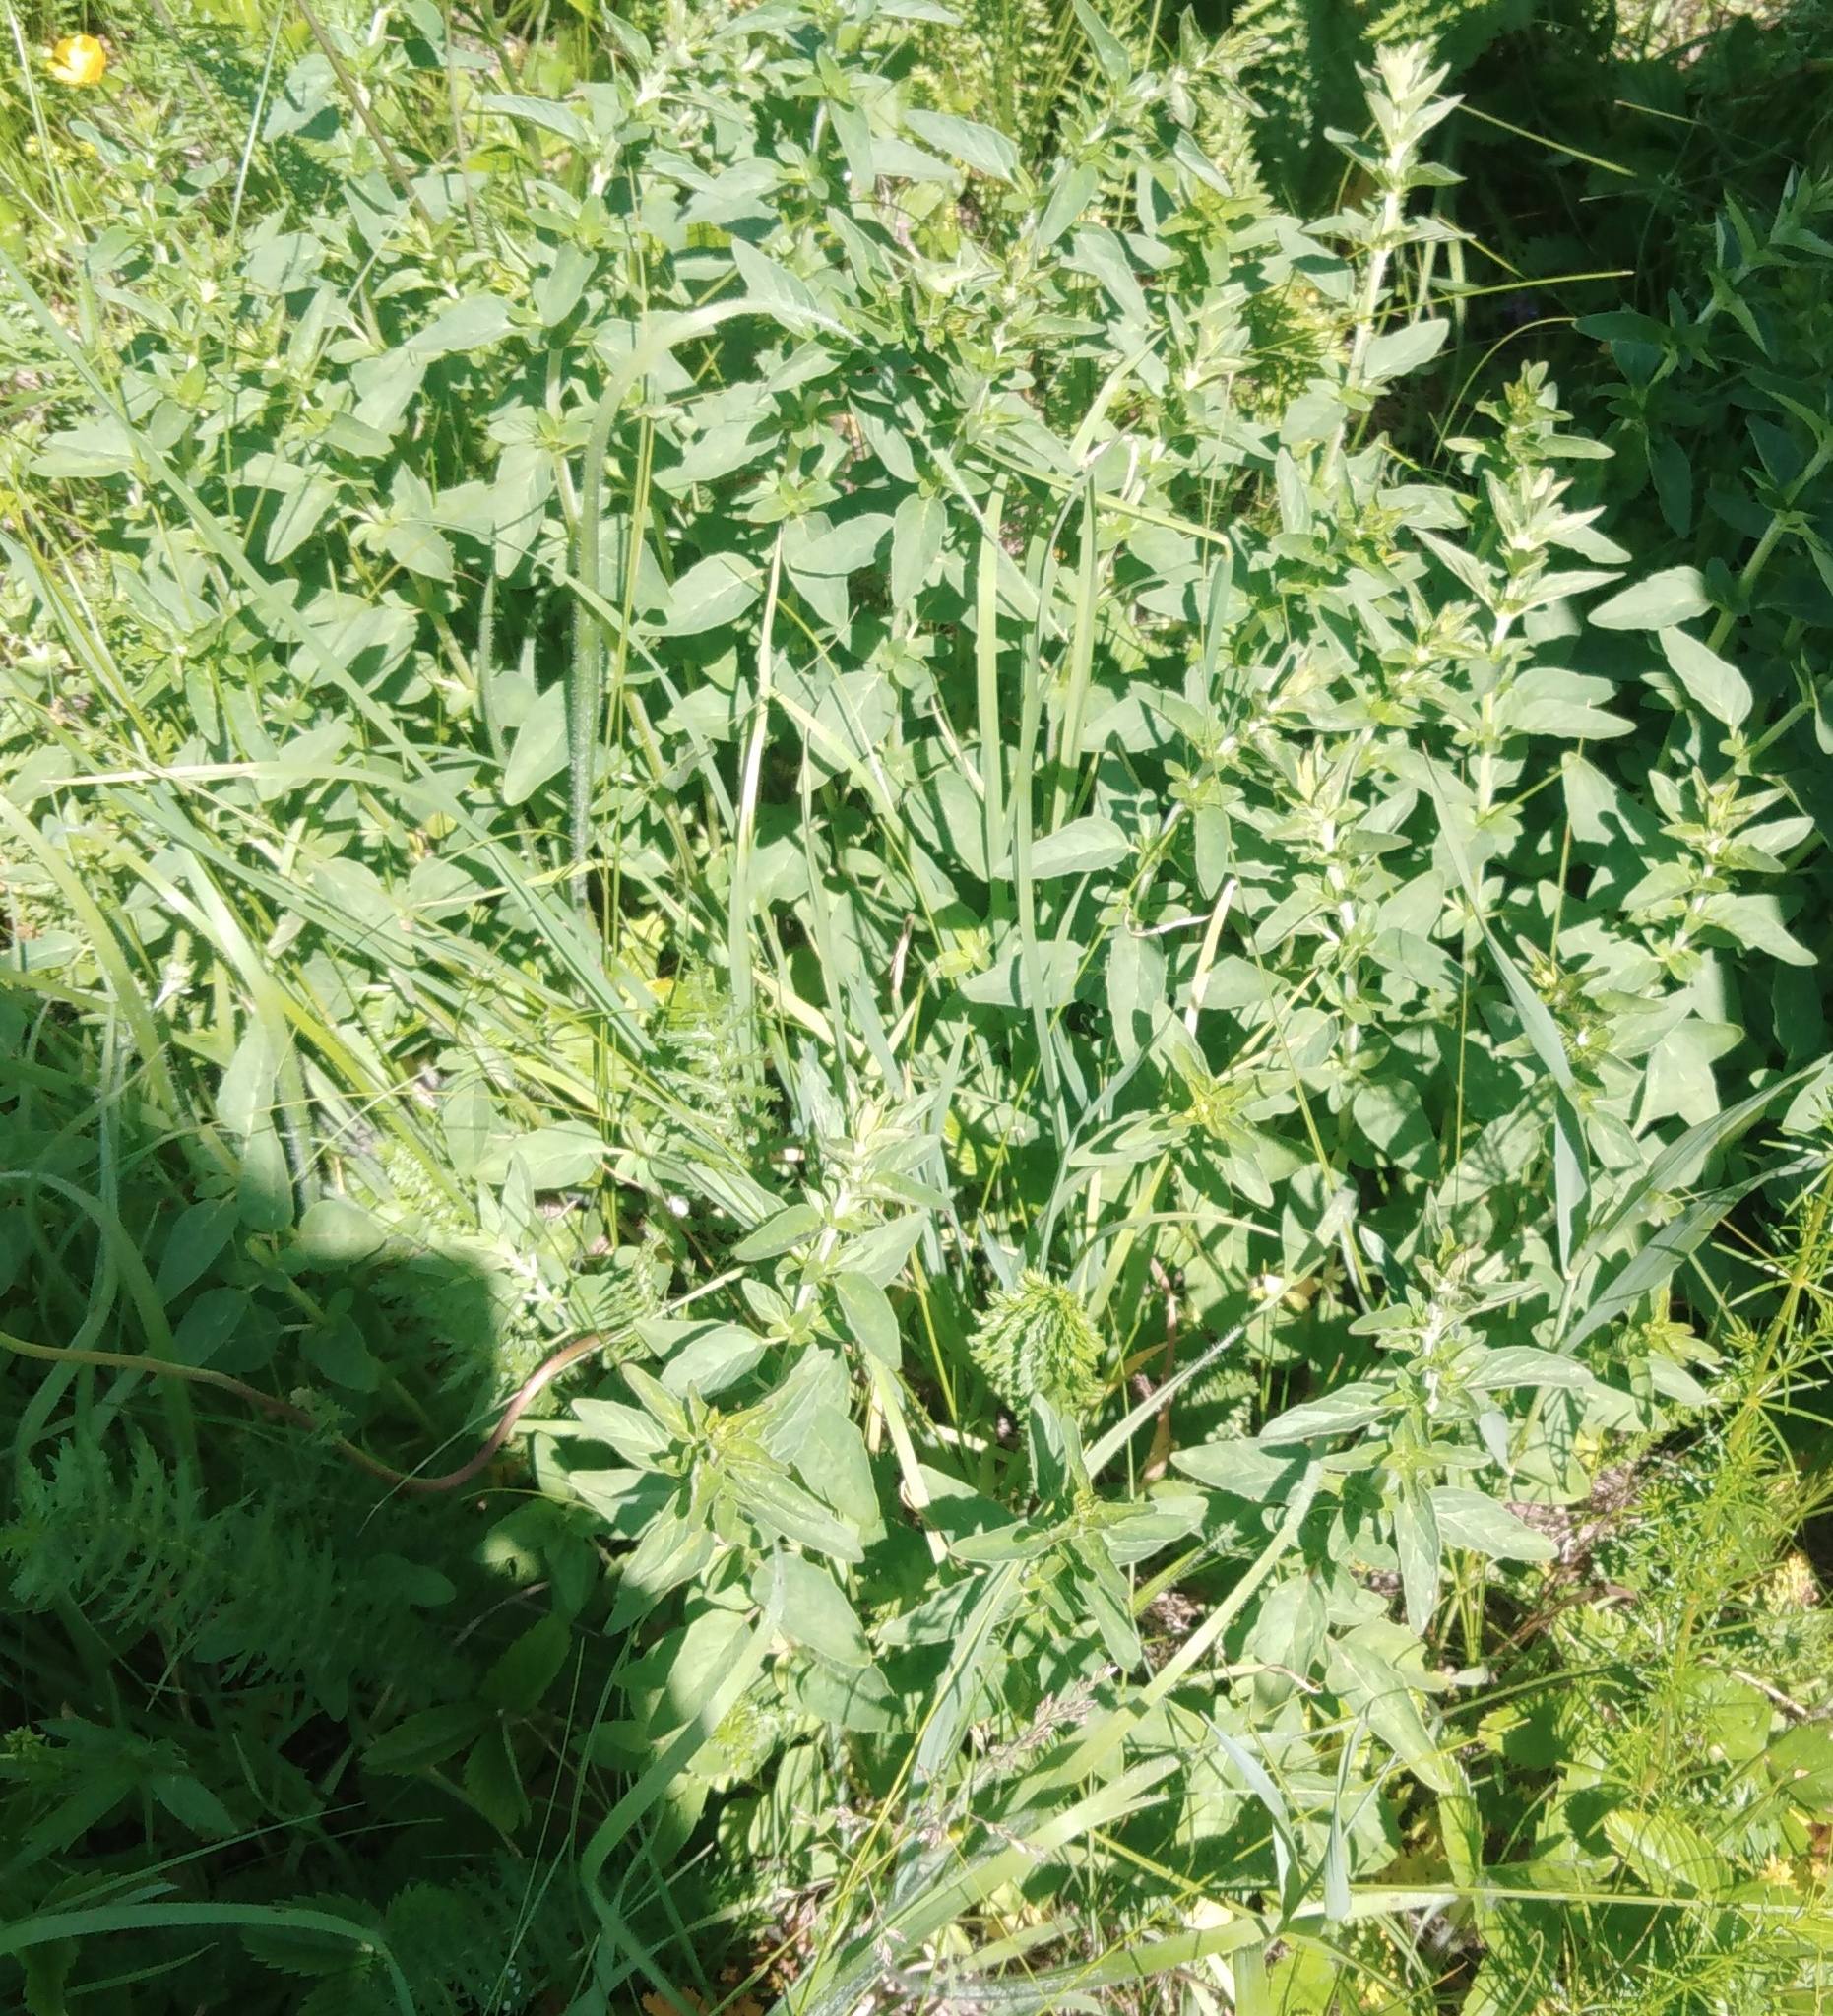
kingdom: Plantae
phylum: Tracheophyta
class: Magnoliopsida
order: Lamiales
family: Lamiaceae
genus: Origanum
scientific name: Origanum vulgare
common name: Wild marjoram
